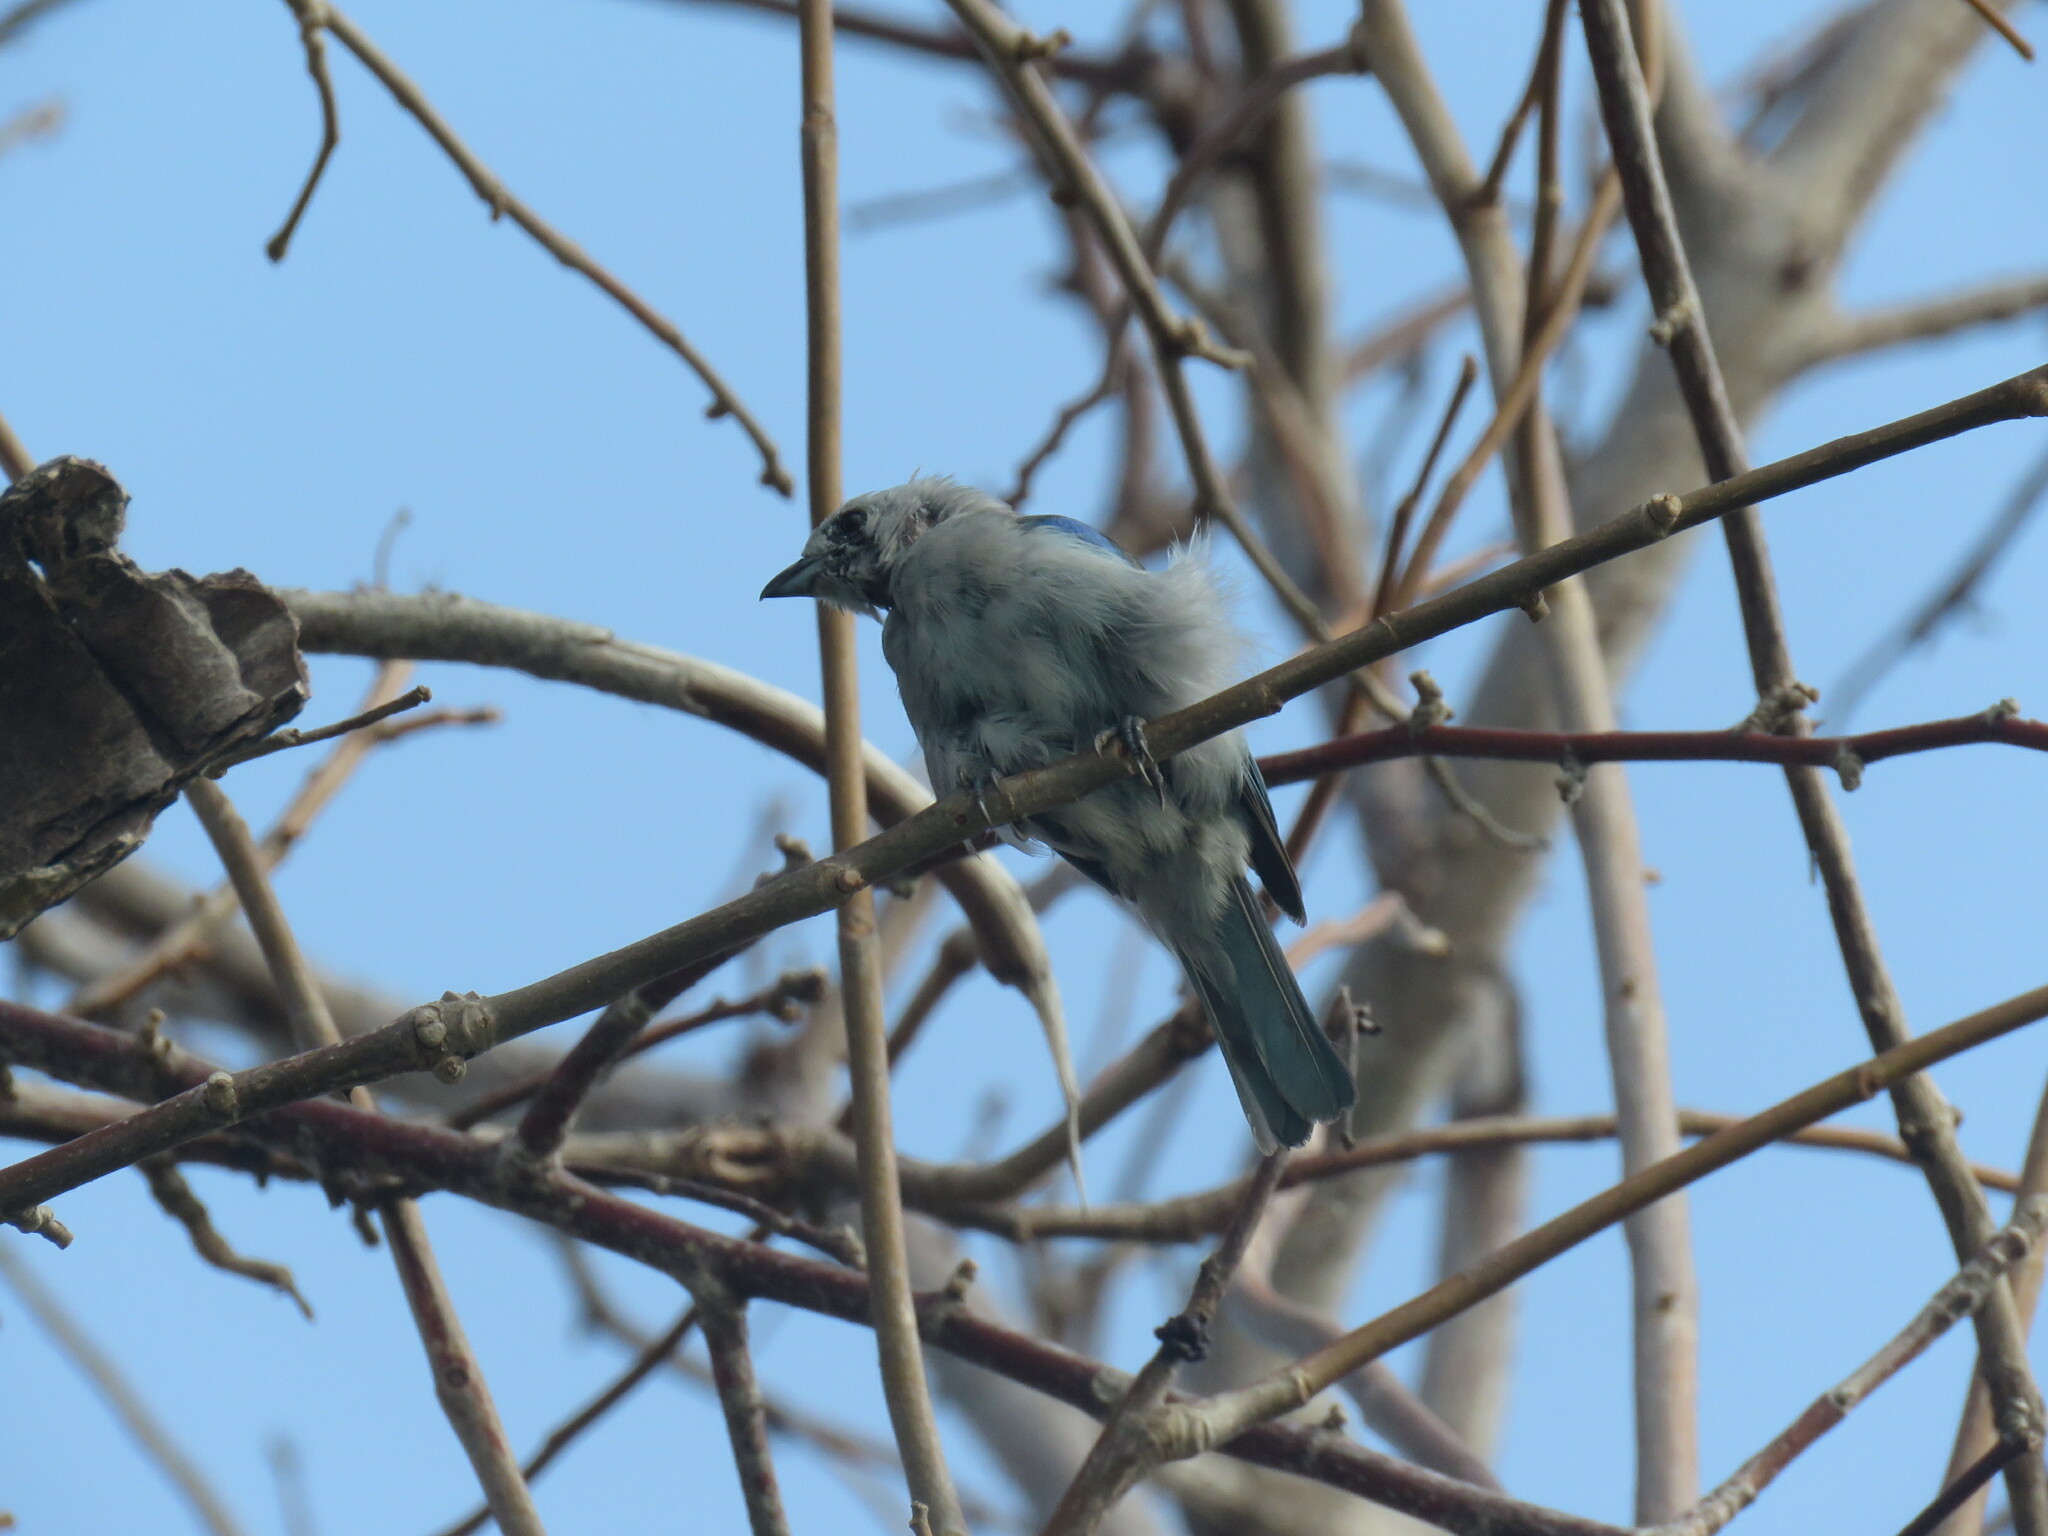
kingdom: Animalia
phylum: Chordata
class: Aves
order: Passeriformes
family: Thraupidae
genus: Thraupis
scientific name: Thraupis episcopus
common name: Blue-grey tanager
